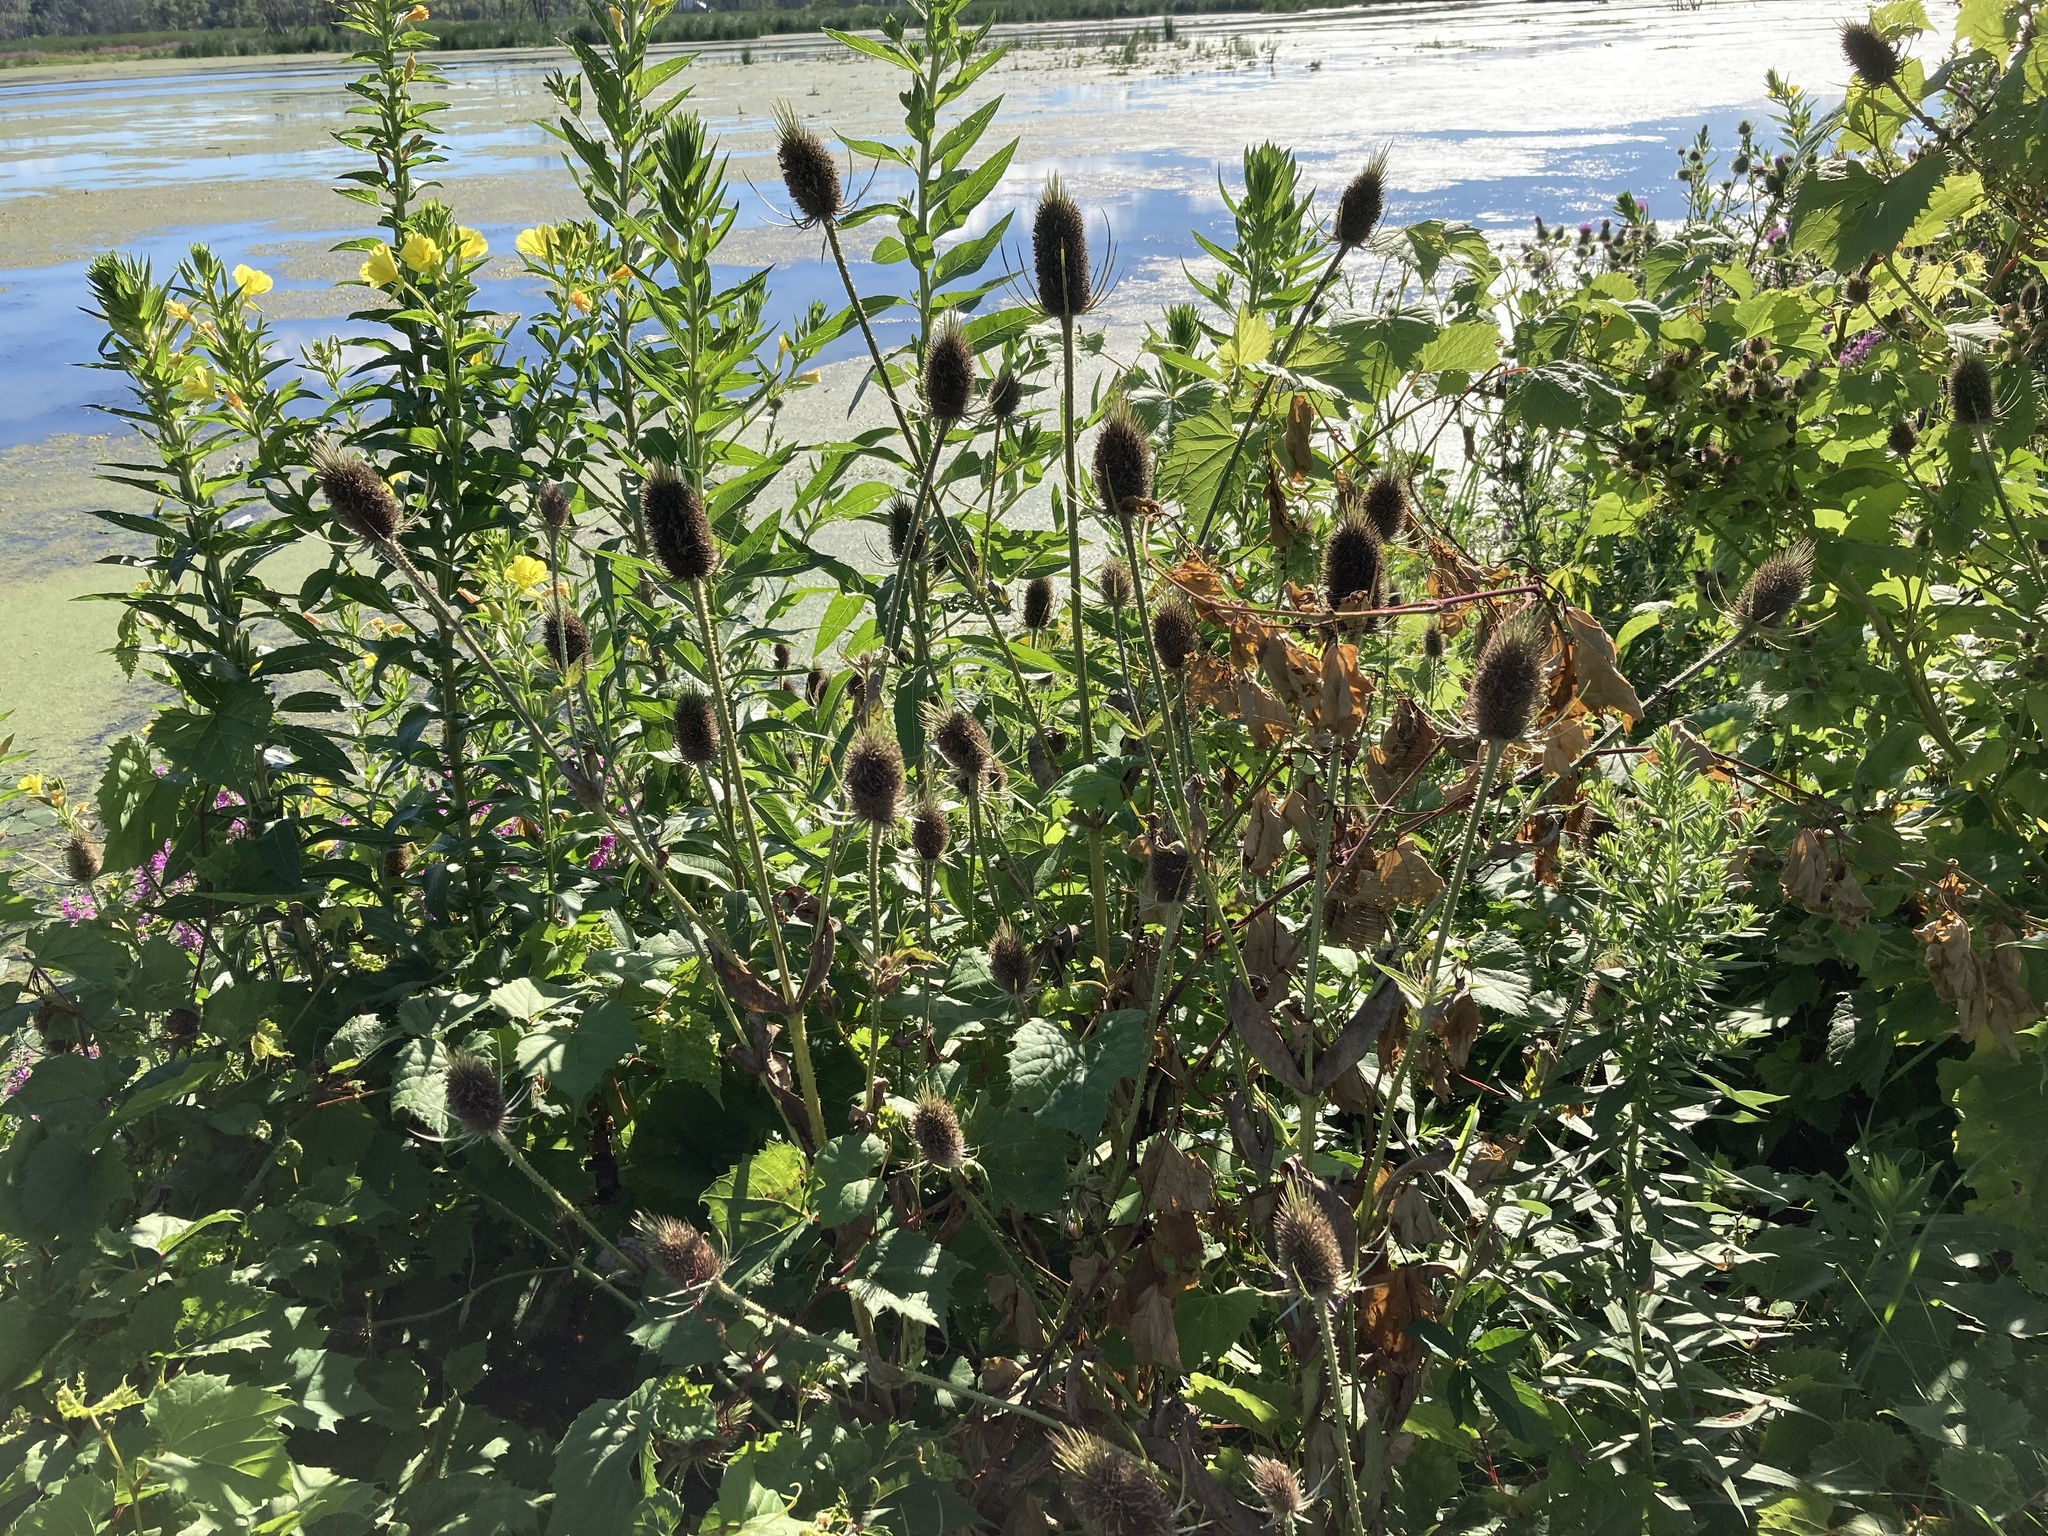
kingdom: Plantae
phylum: Tracheophyta
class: Magnoliopsida
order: Dipsacales
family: Caprifoliaceae
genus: Dipsacus
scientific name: Dipsacus fullonum
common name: Teasel
